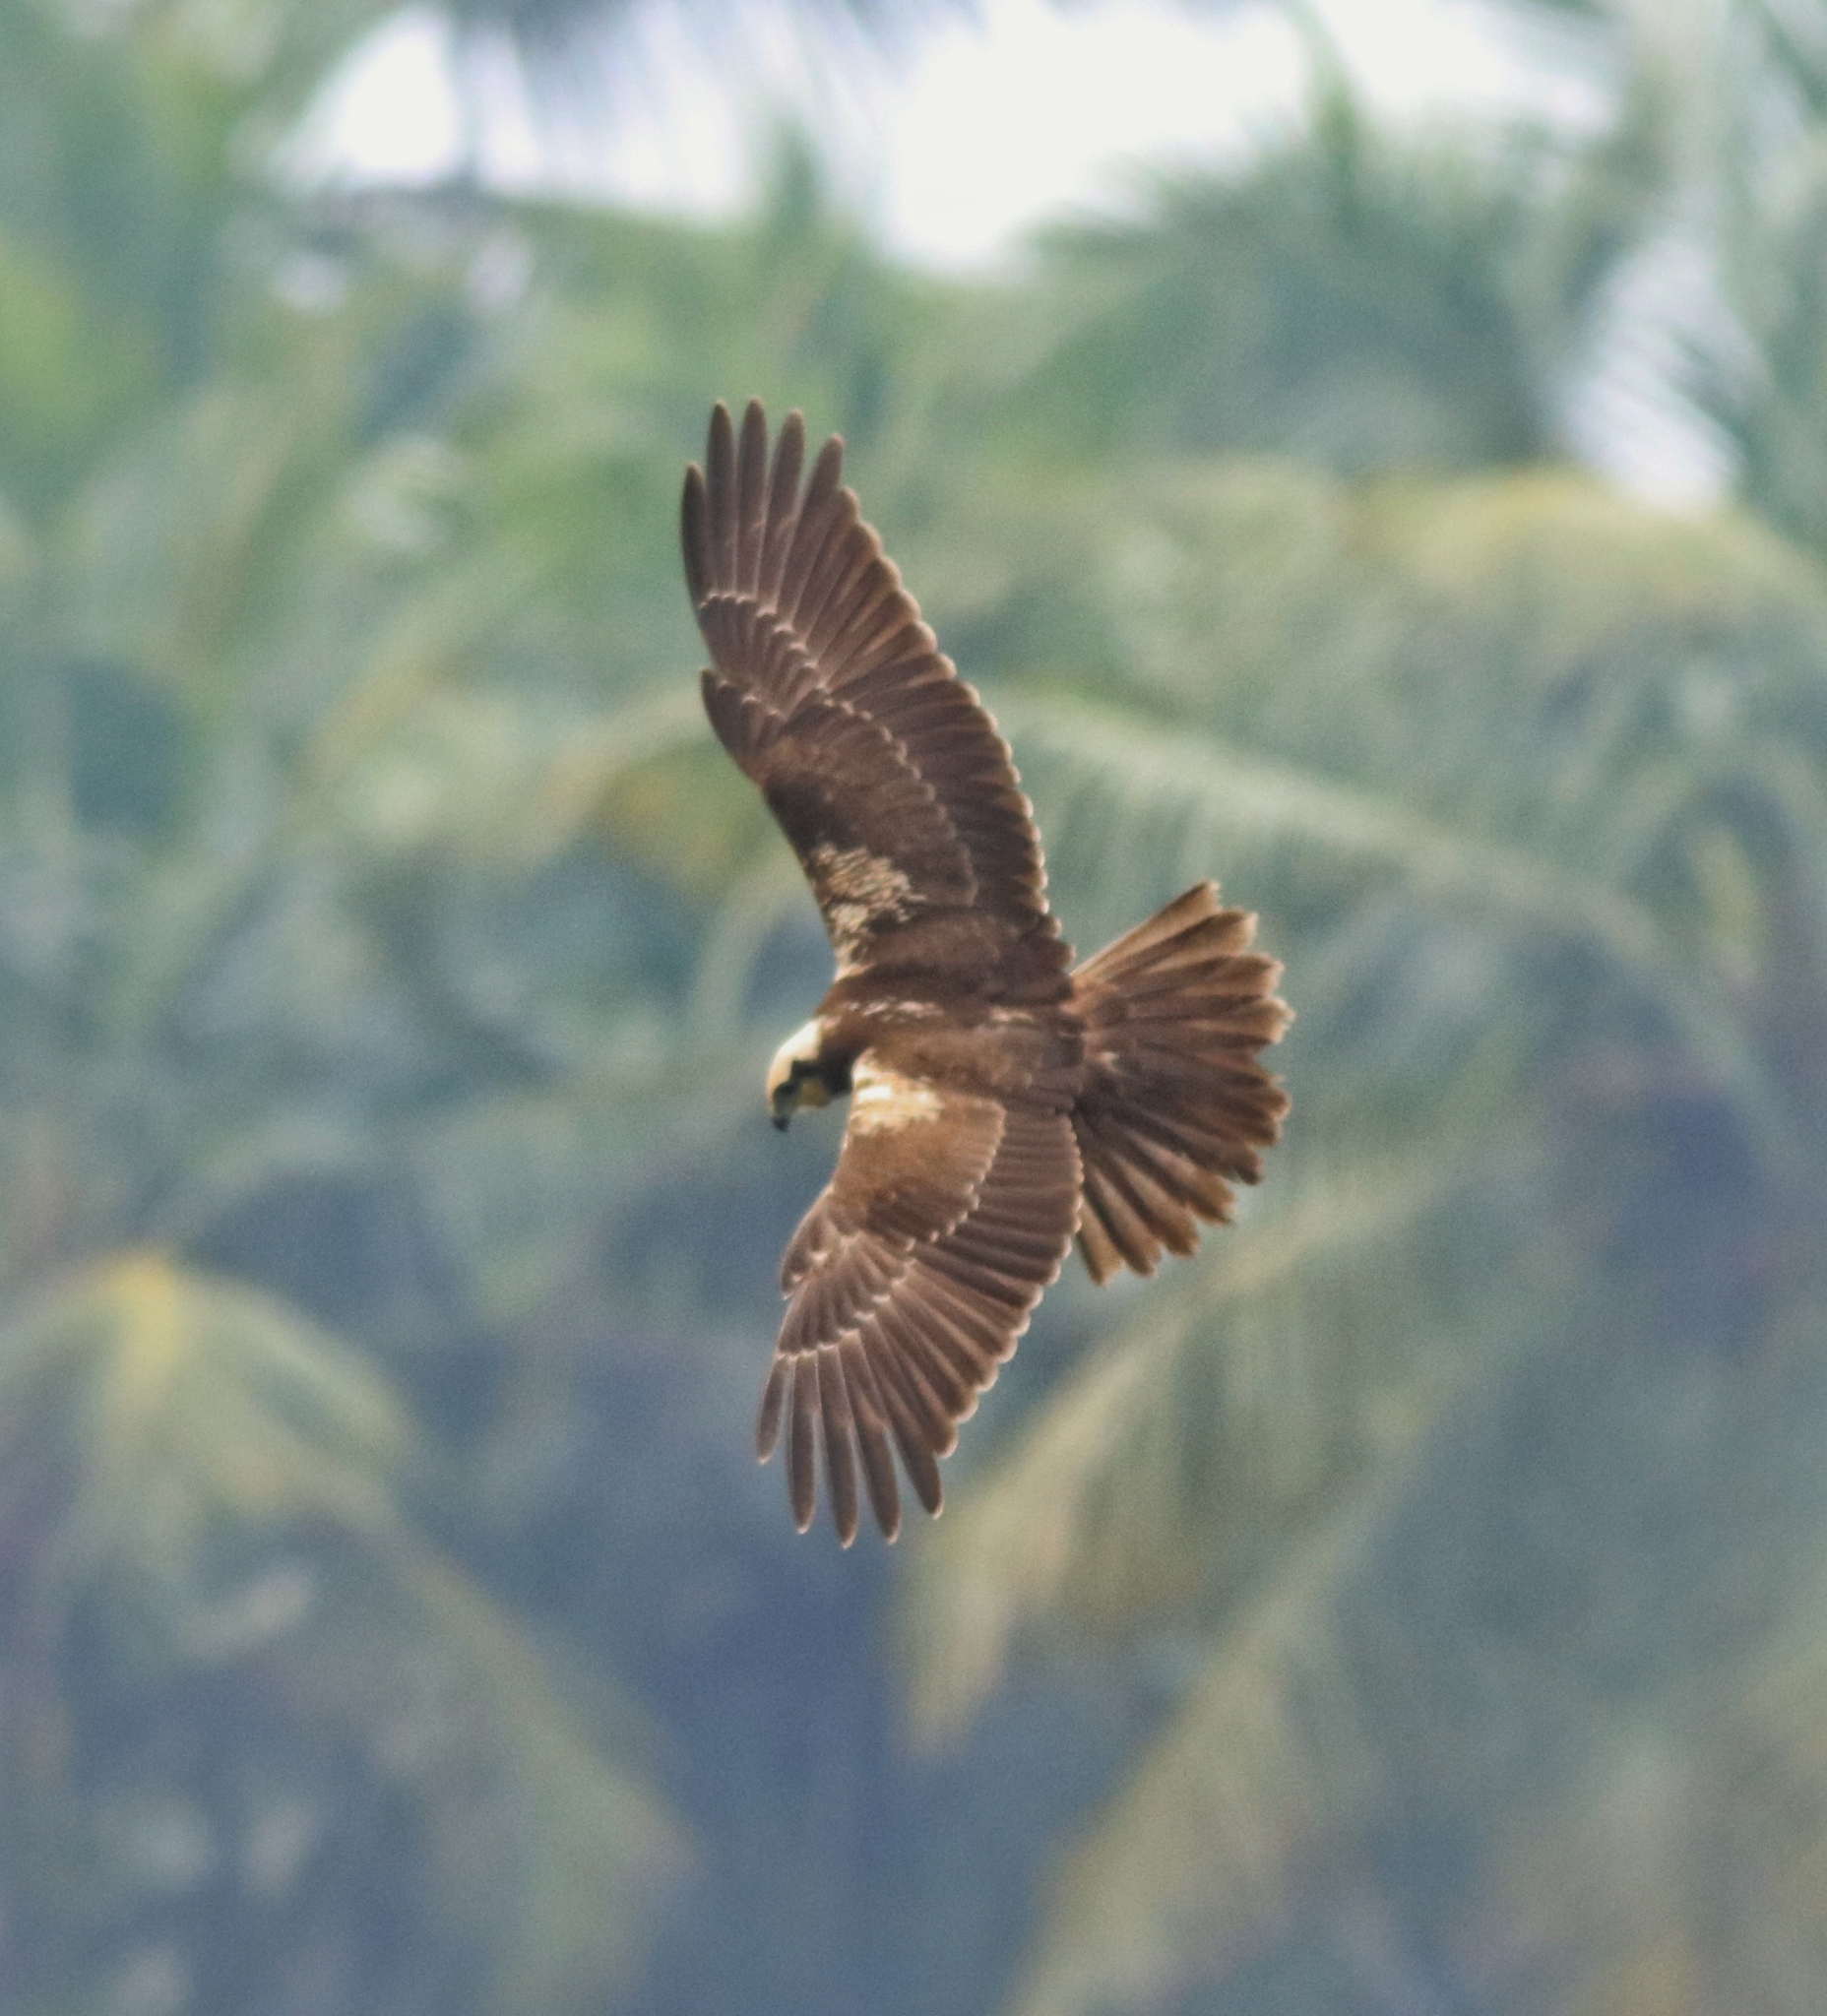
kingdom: Animalia
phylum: Chordata
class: Aves
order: Accipitriformes
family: Accipitridae
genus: Circus
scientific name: Circus aeruginosus
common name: Western marsh harrier
